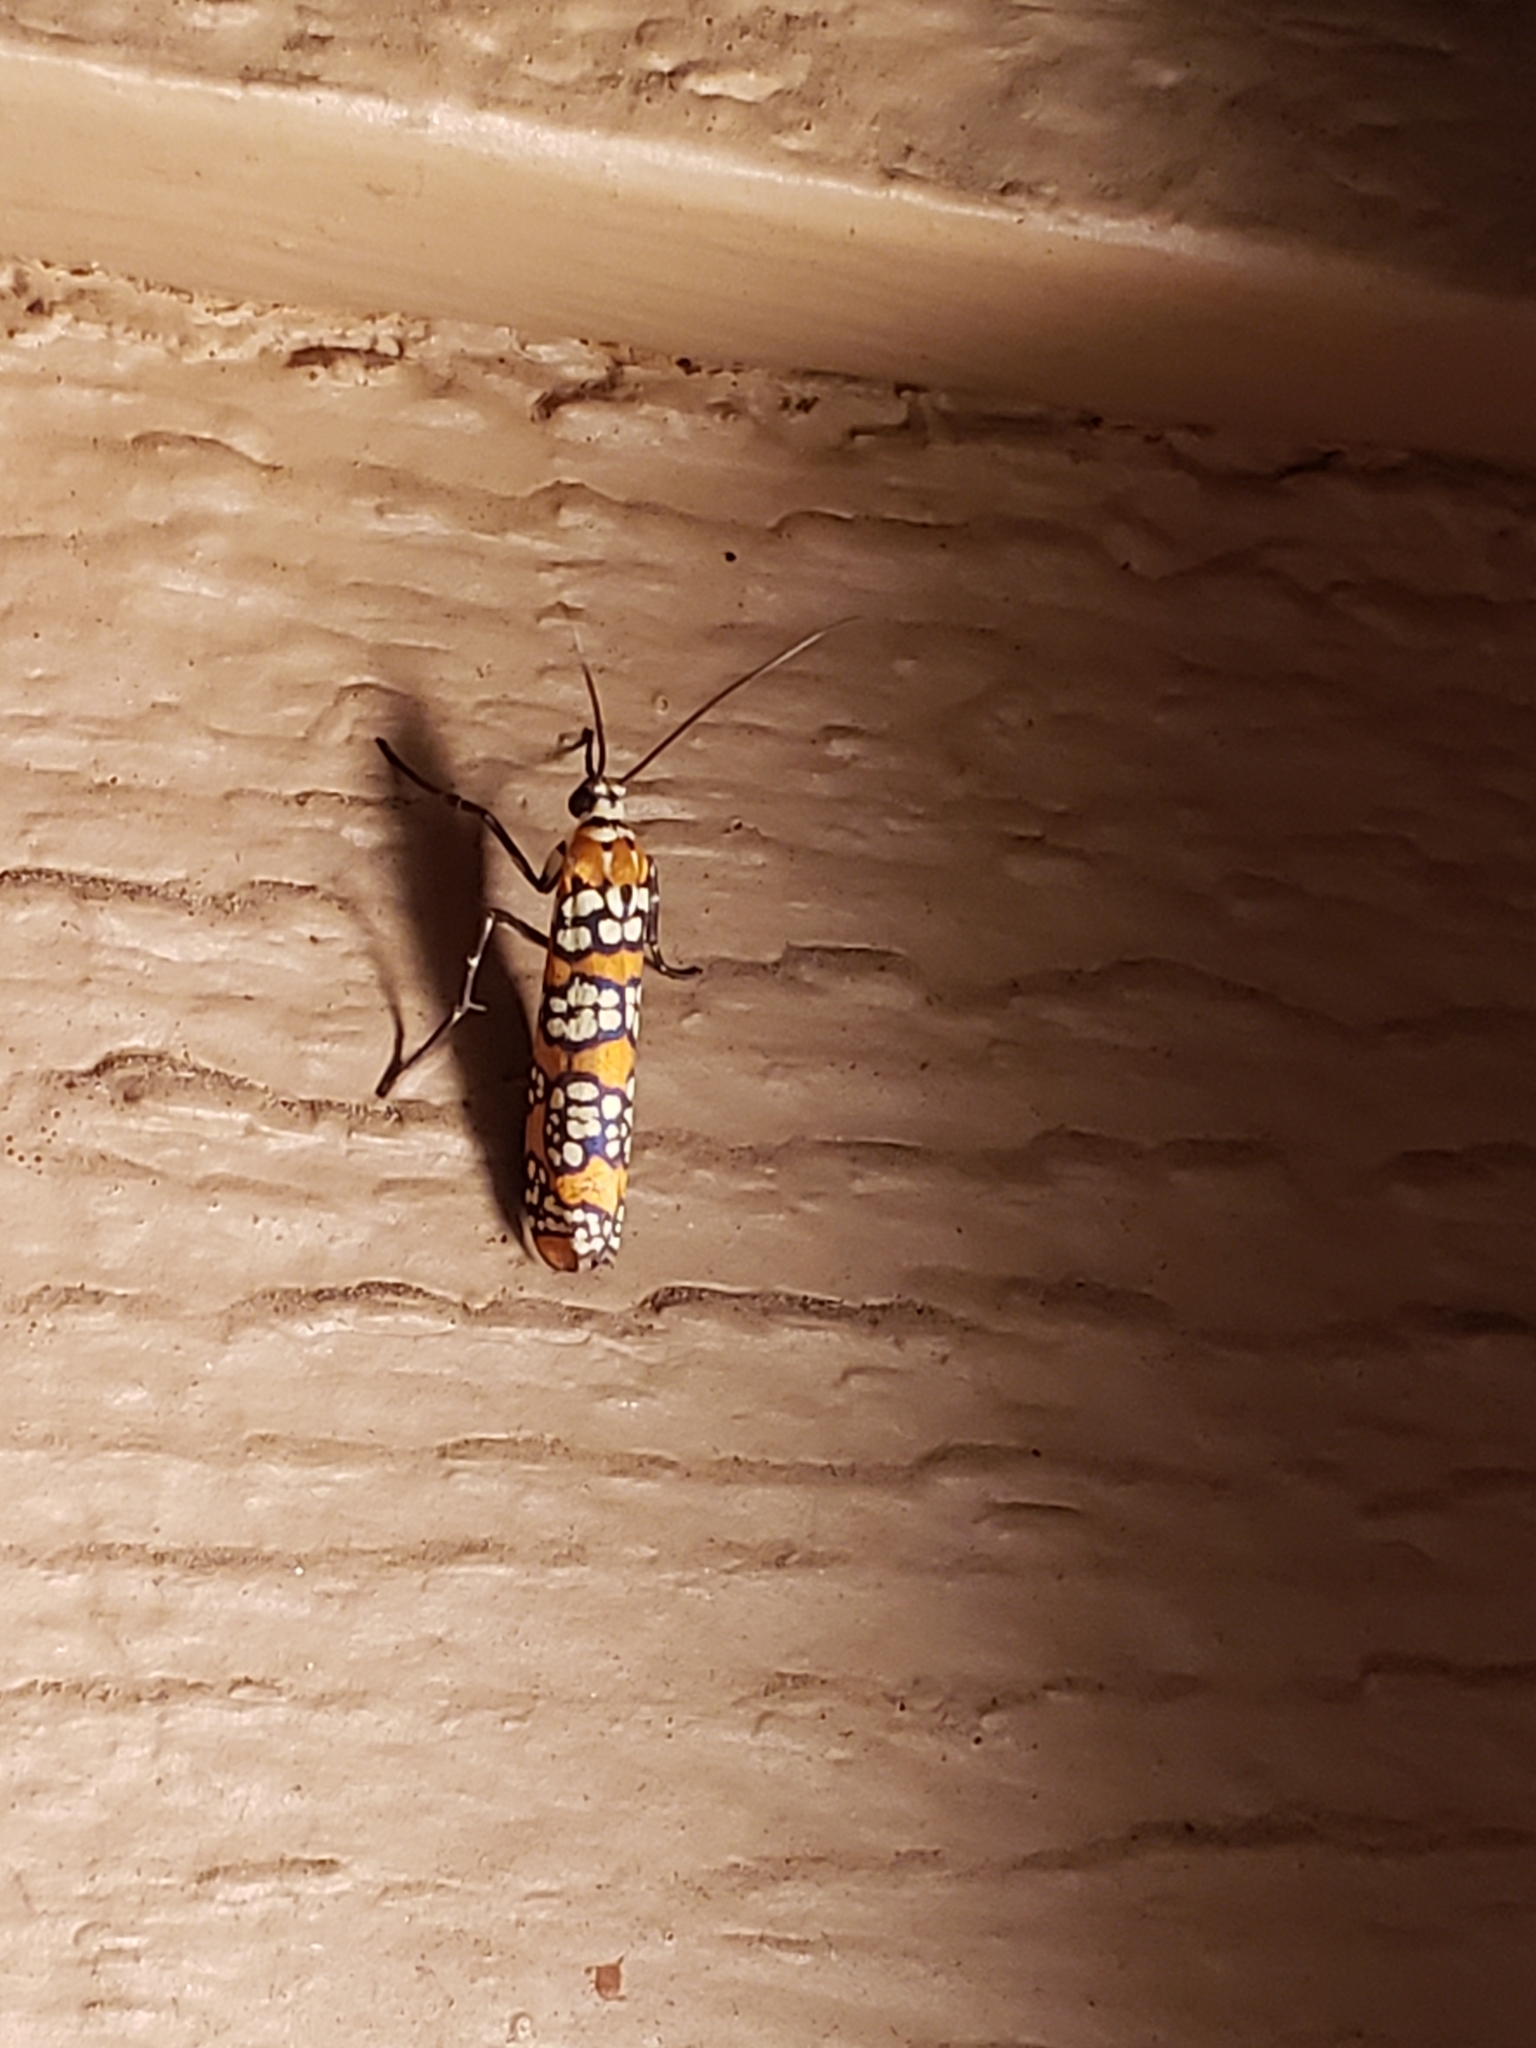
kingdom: Animalia
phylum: Arthropoda
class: Insecta
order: Lepidoptera
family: Attevidae
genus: Atteva
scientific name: Atteva punctella
